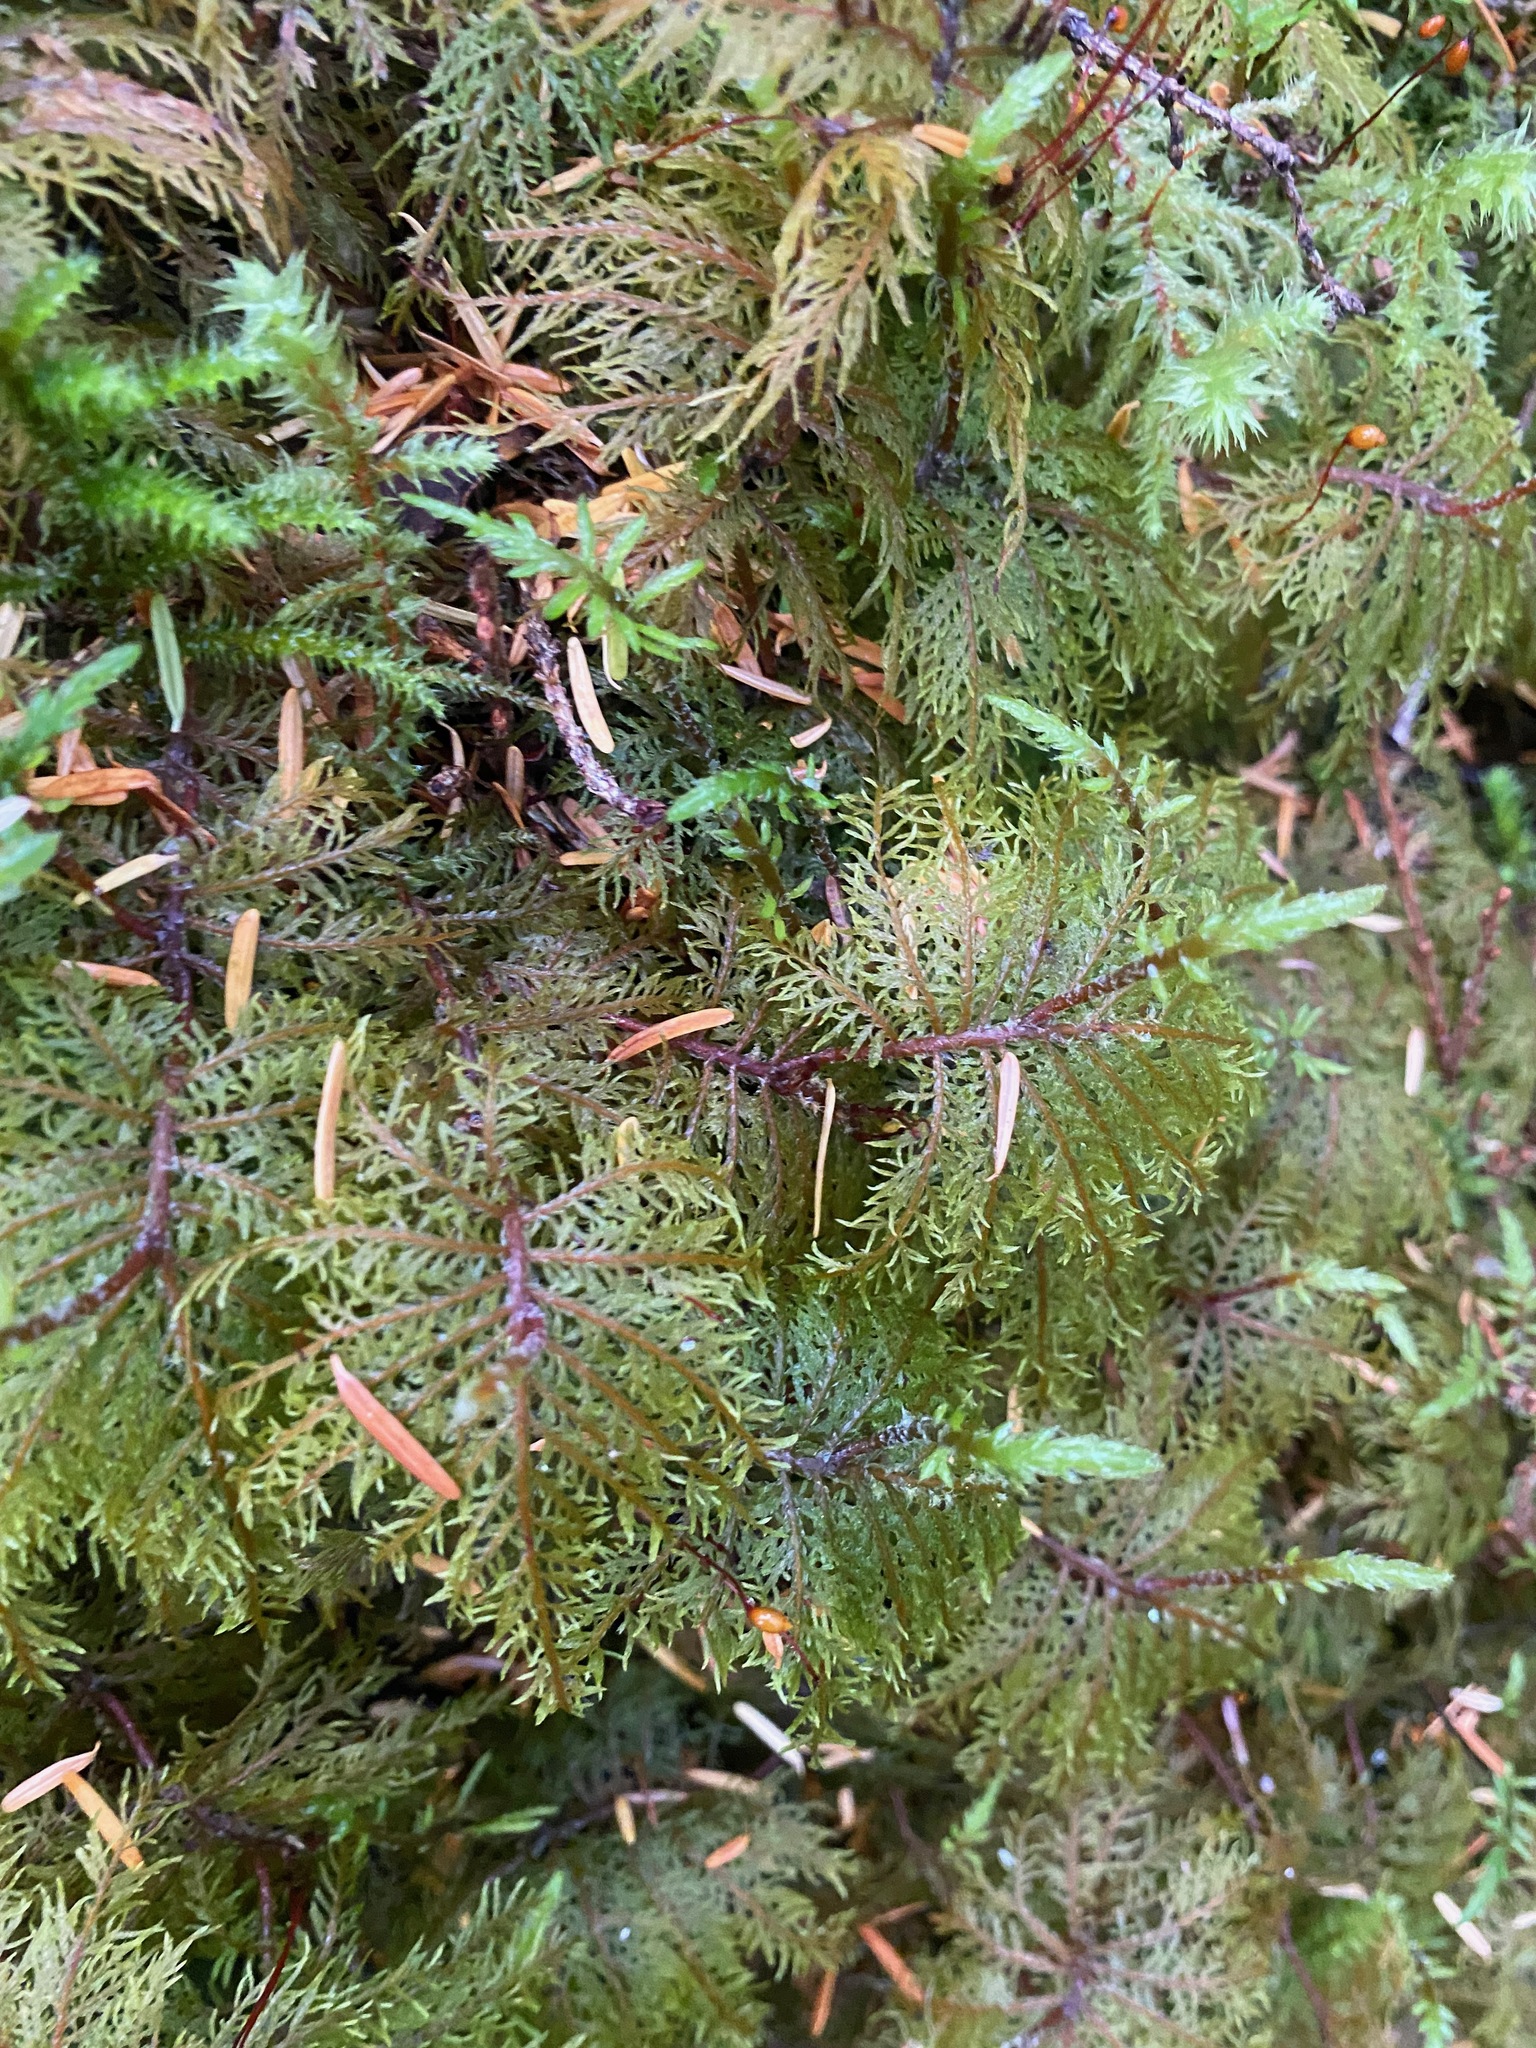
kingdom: Plantae
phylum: Bryophyta
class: Bryopsida
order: Hypnales
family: Hylocomiaceae
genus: Hylocomium
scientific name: Hylocomium splendens
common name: Stairstep moss
